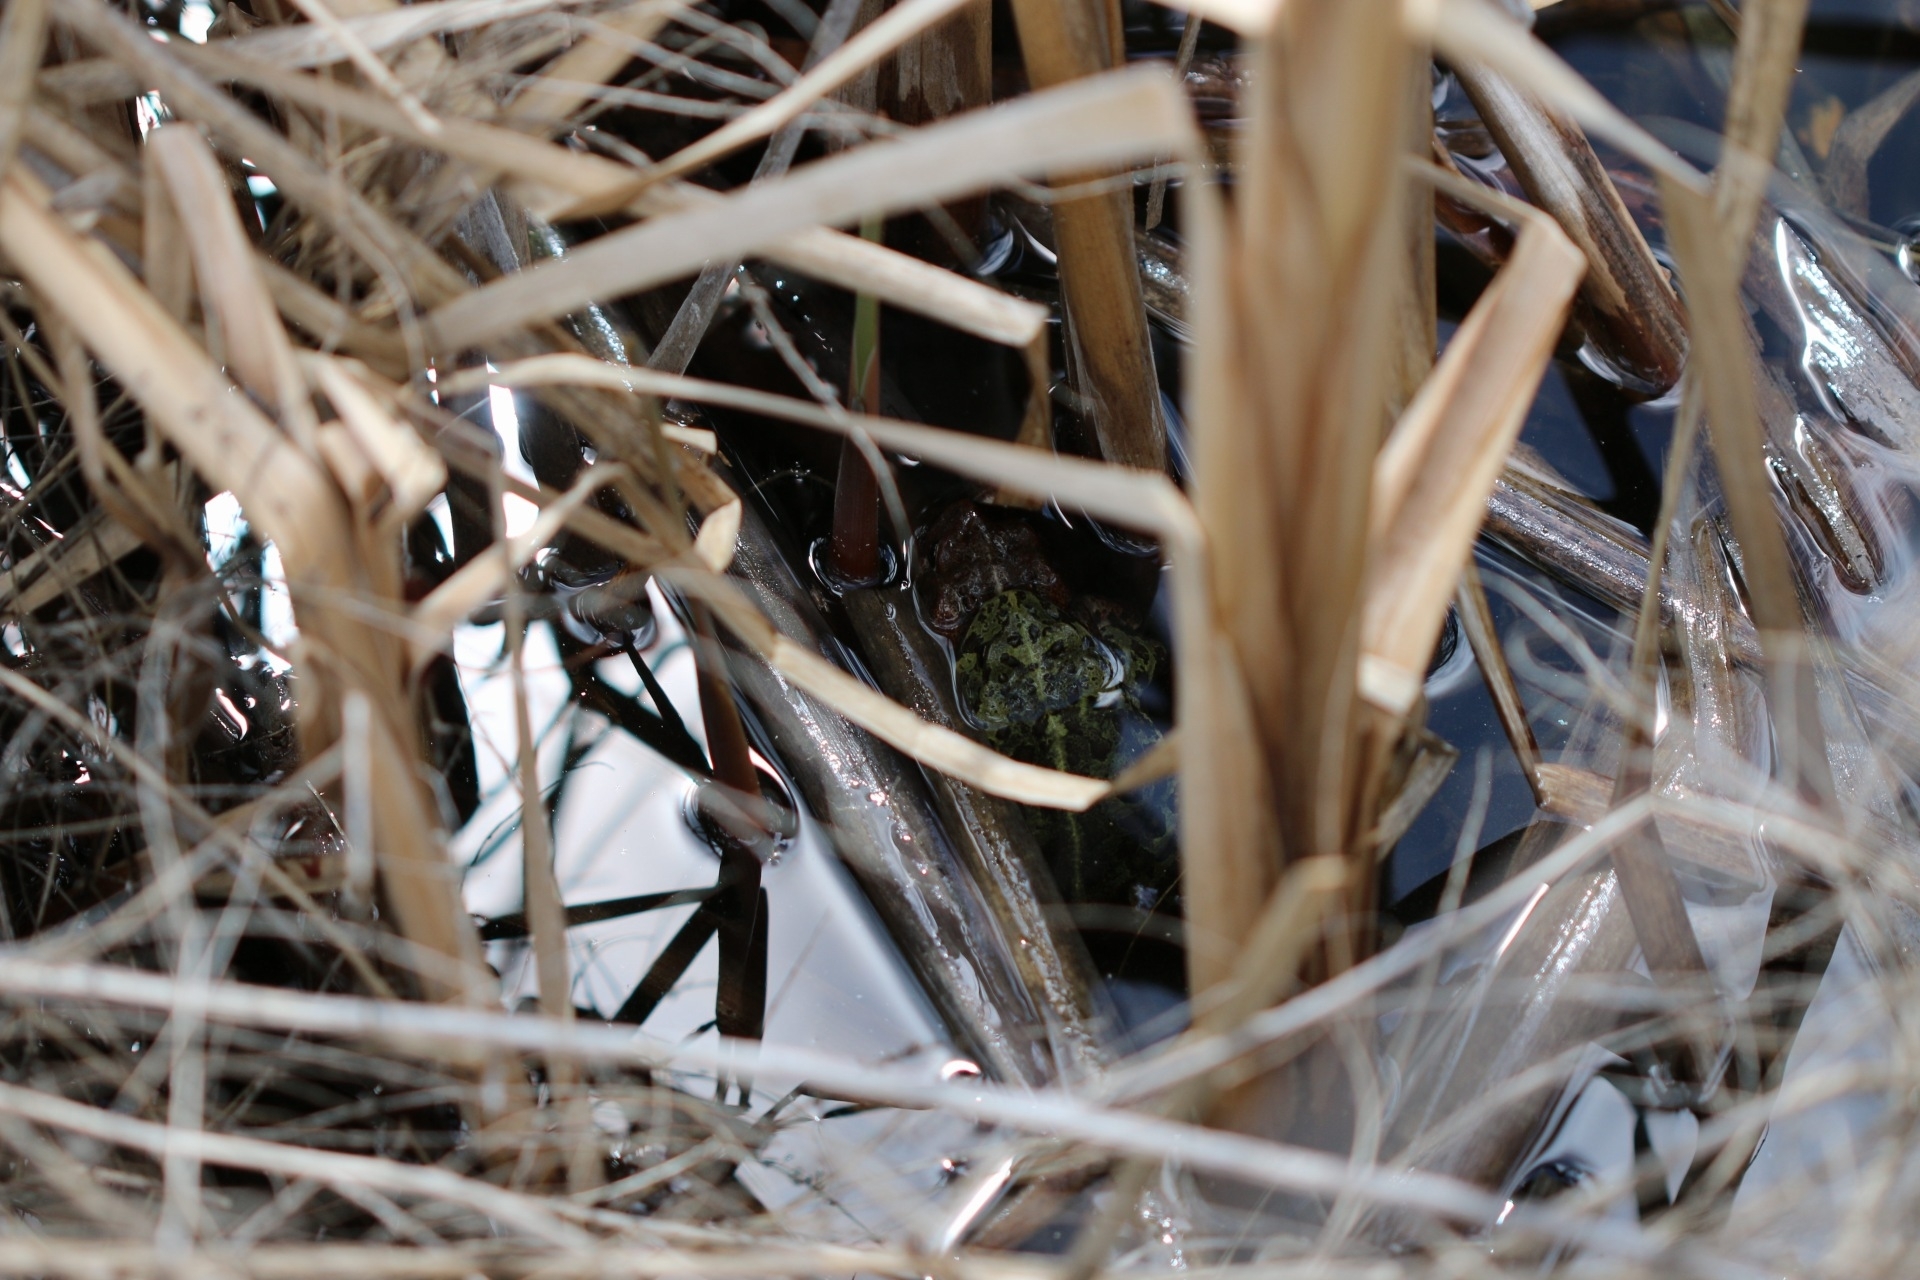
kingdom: Animalia
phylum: Chordata
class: Amphibia
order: Anura
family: Bufonidae
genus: Anaxyrus
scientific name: Anaxyrus boreas
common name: Western toad
